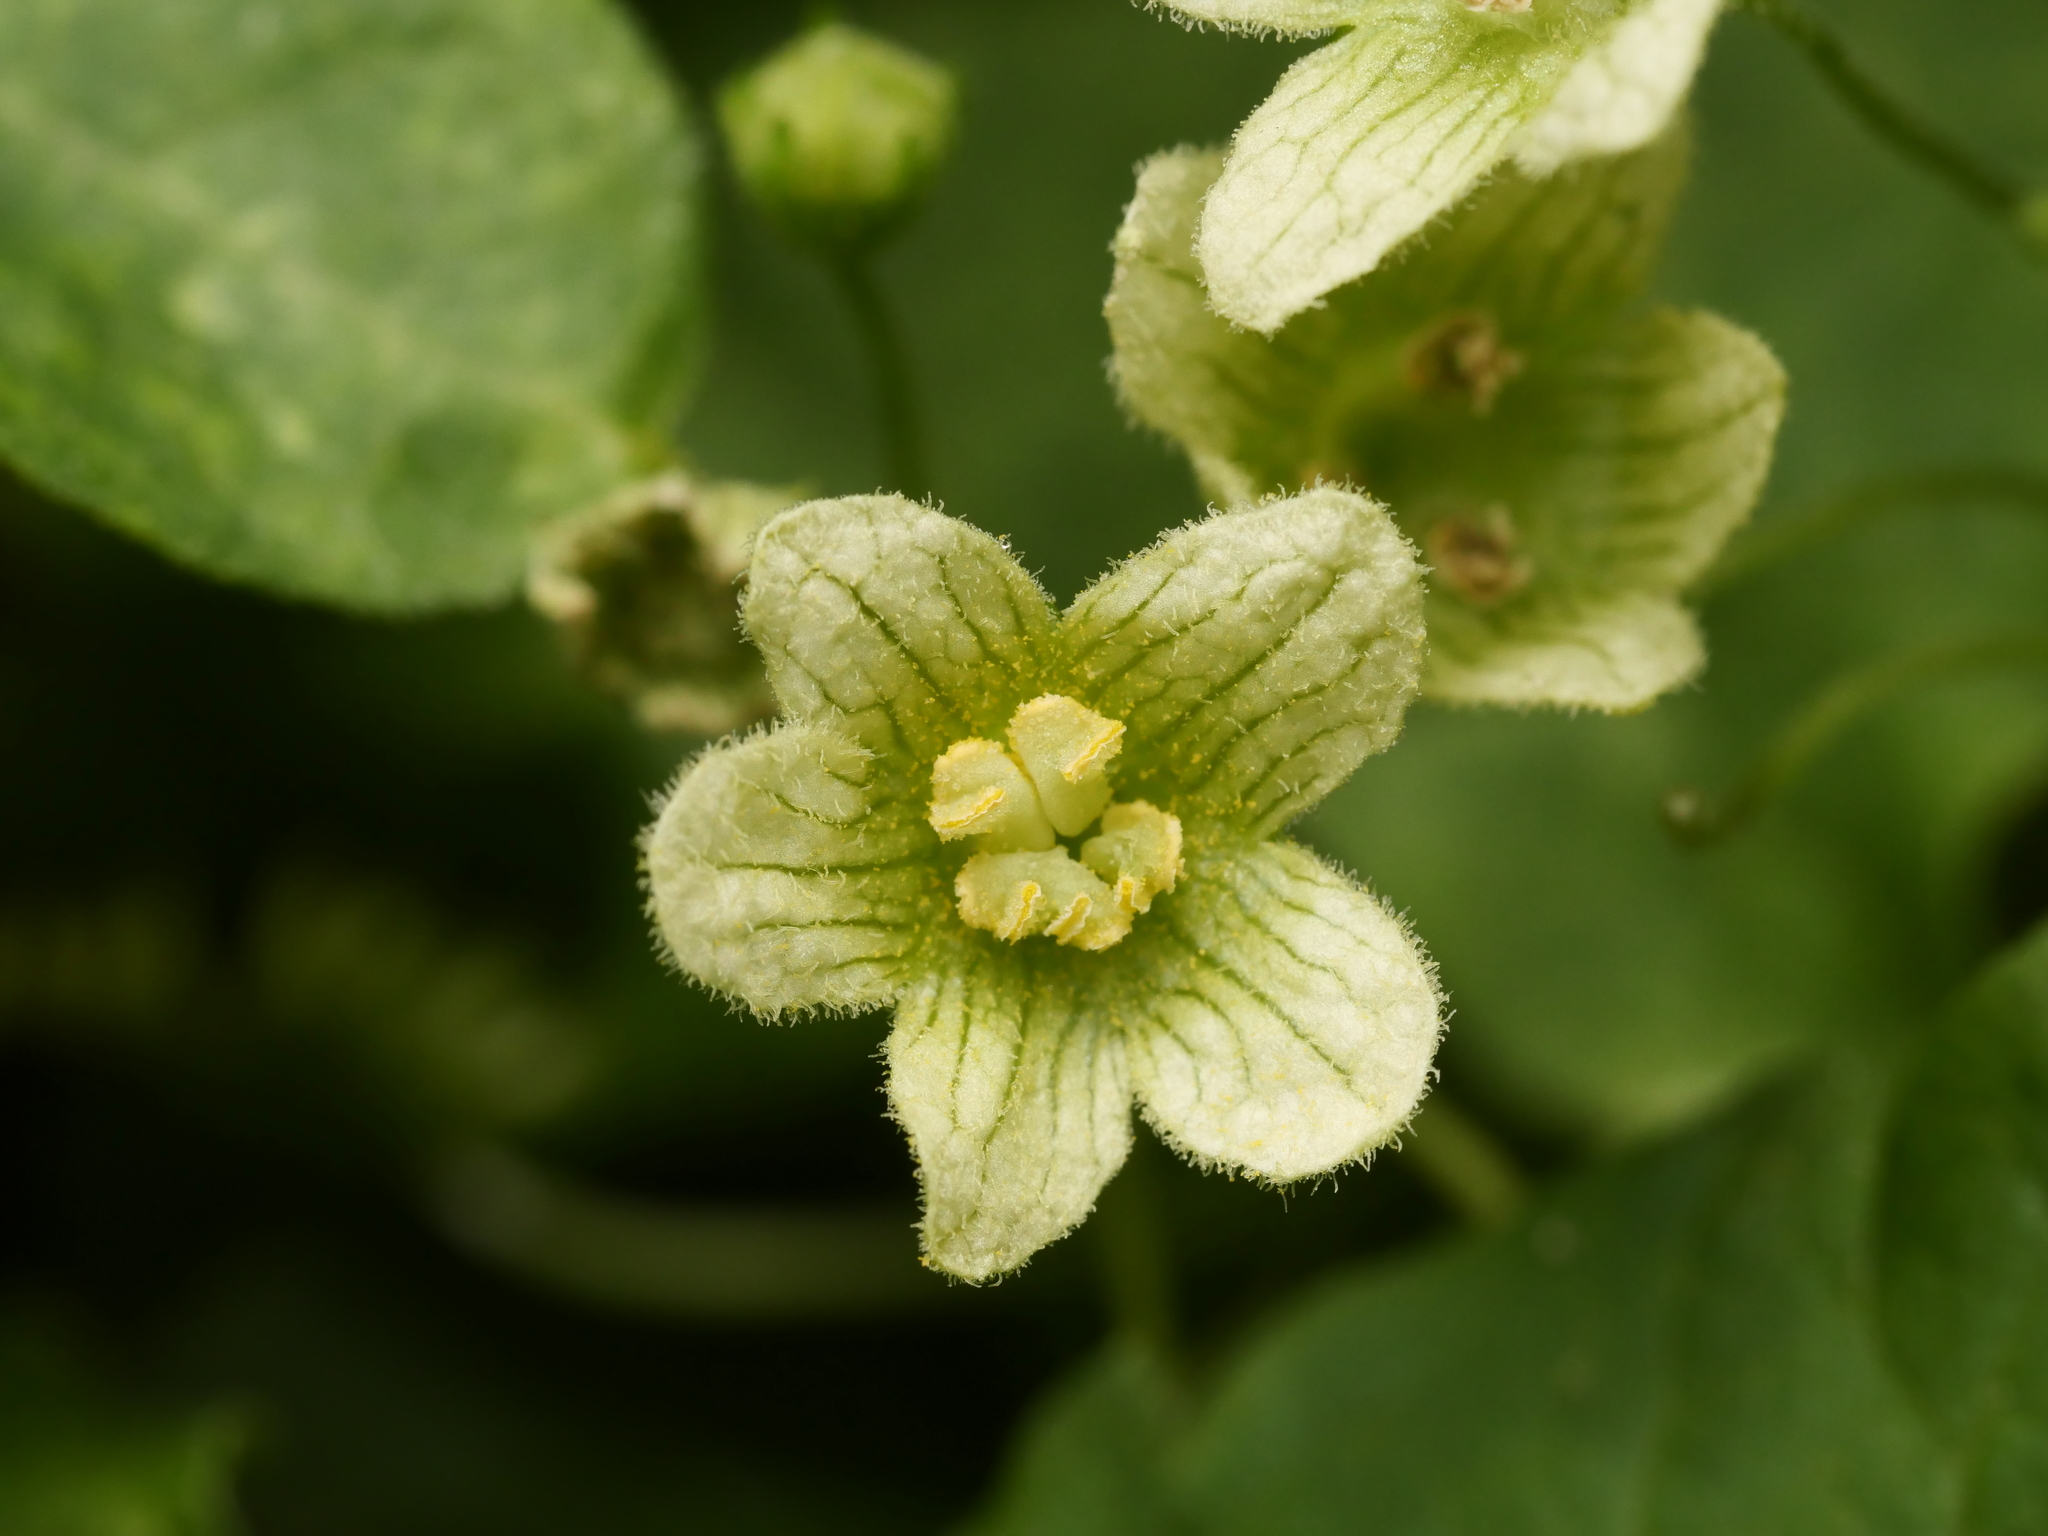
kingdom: Plantae
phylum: Tracheophyta
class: Magnoliopsida
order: Cucurbitales
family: Cucurbitaceae
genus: Bryonia
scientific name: Bryonia cretica
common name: Cretan bryony
